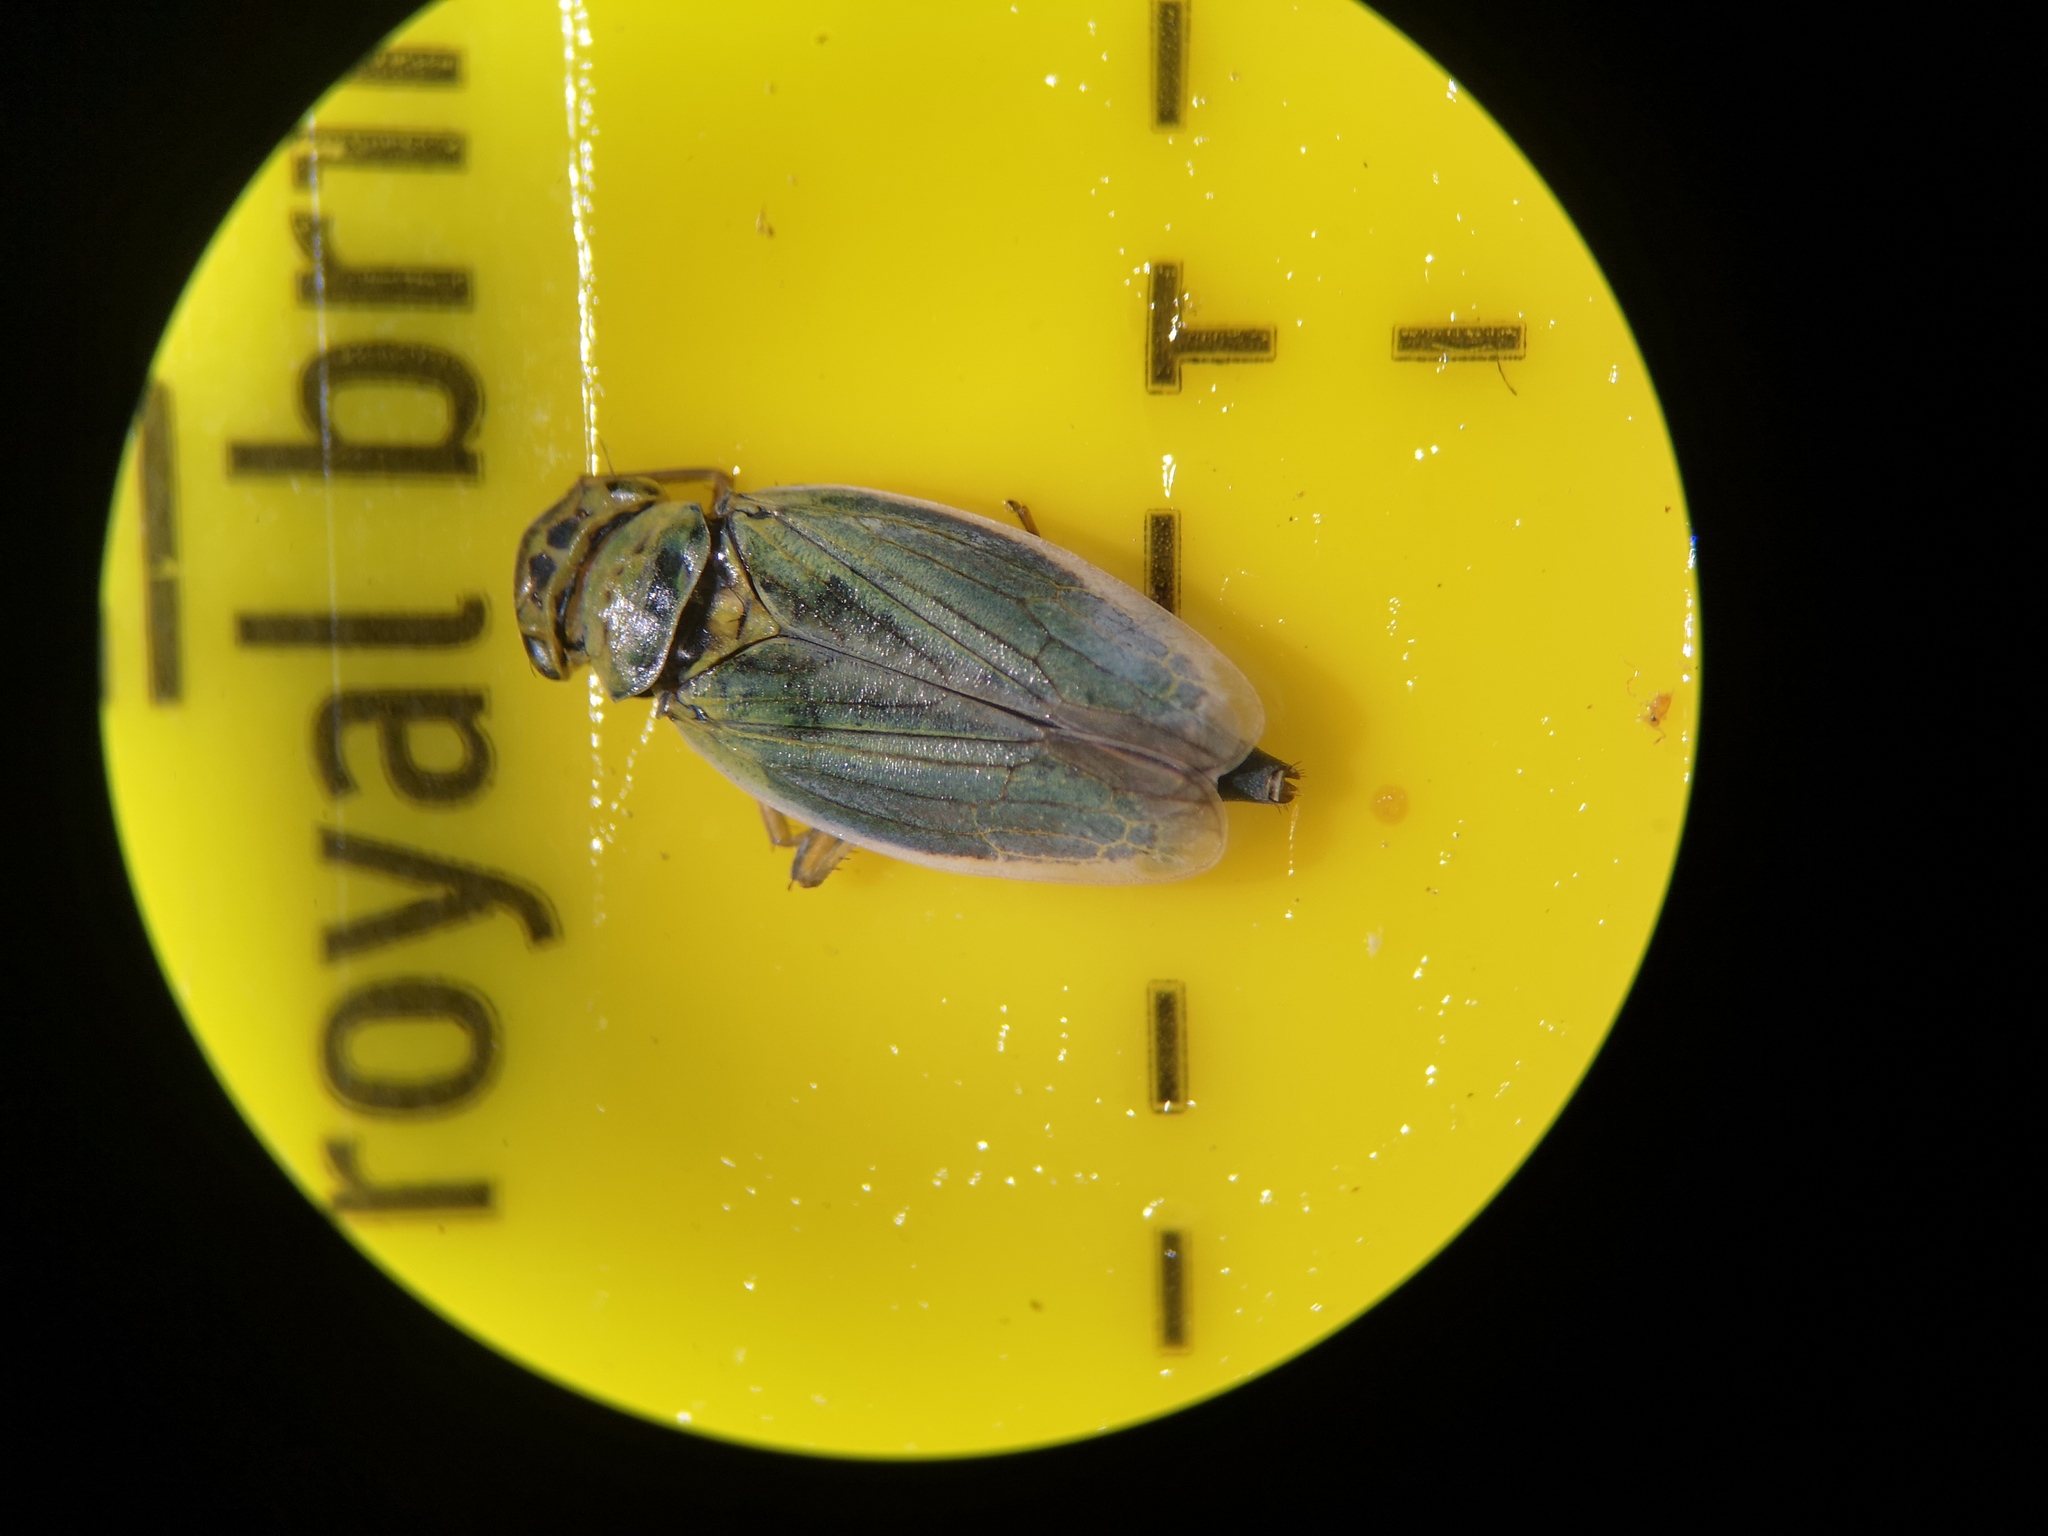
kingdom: Animalia
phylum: Arthropoda
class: Insecta
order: Hemiptera
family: Cicadellidae
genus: Cicadella
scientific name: Cicadella viridis
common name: Leafhopper
